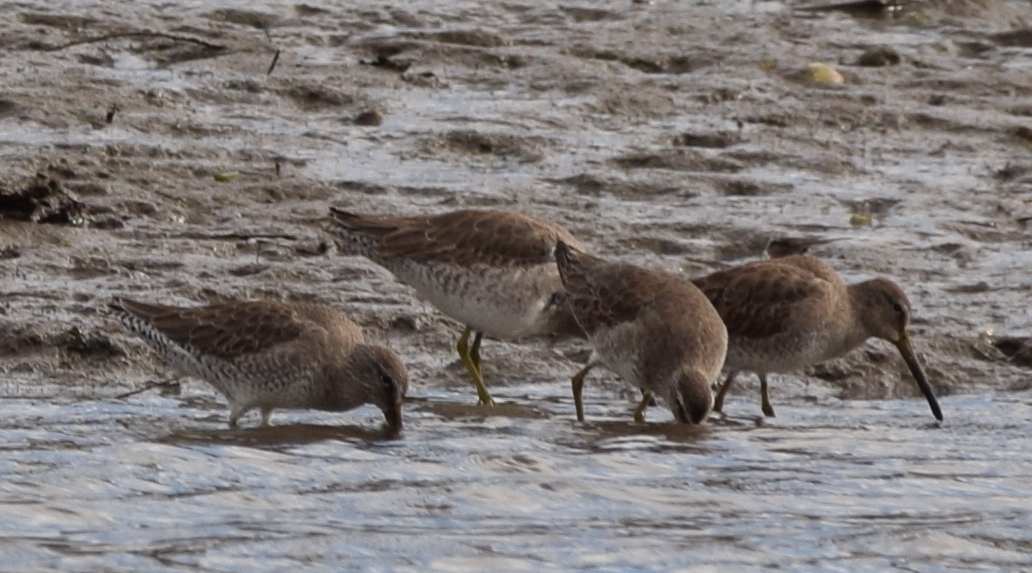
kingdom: Animalia
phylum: Chordata
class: Aves
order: Charadriiformes
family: Scolopacidae
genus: Limnodromus
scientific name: Limnodromus
